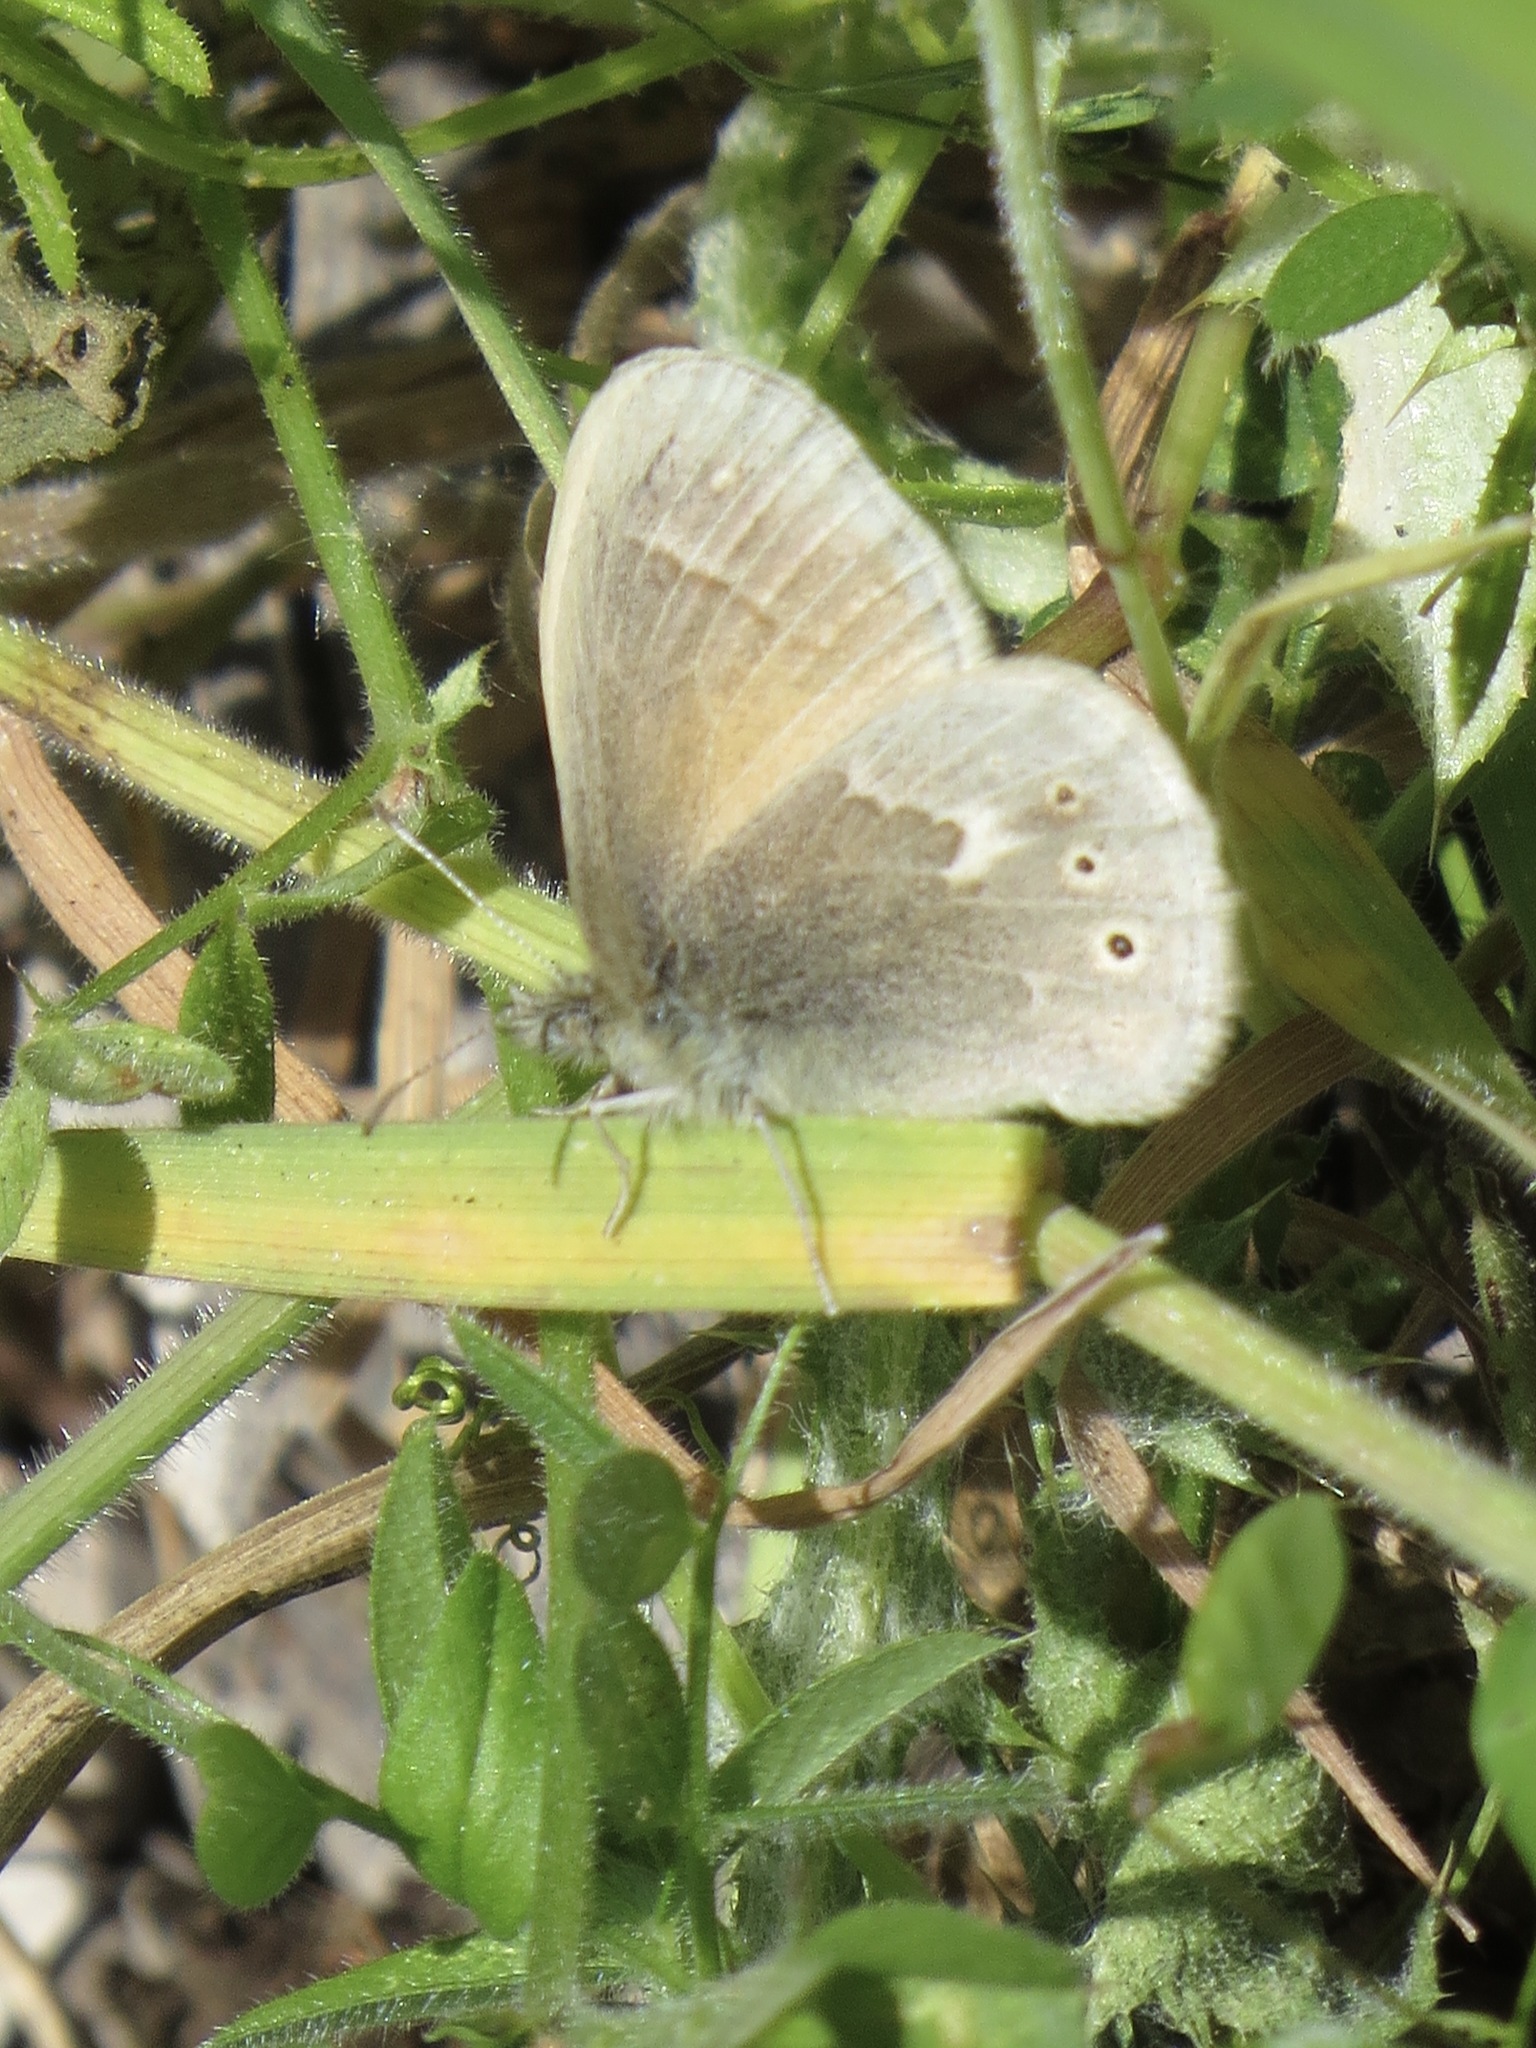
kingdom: Animalia
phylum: Arthropoda
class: Insecta
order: Lepidoptera
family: Nymphalidae
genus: Coenonympha
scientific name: Coenonympha california
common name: Common ringlet
